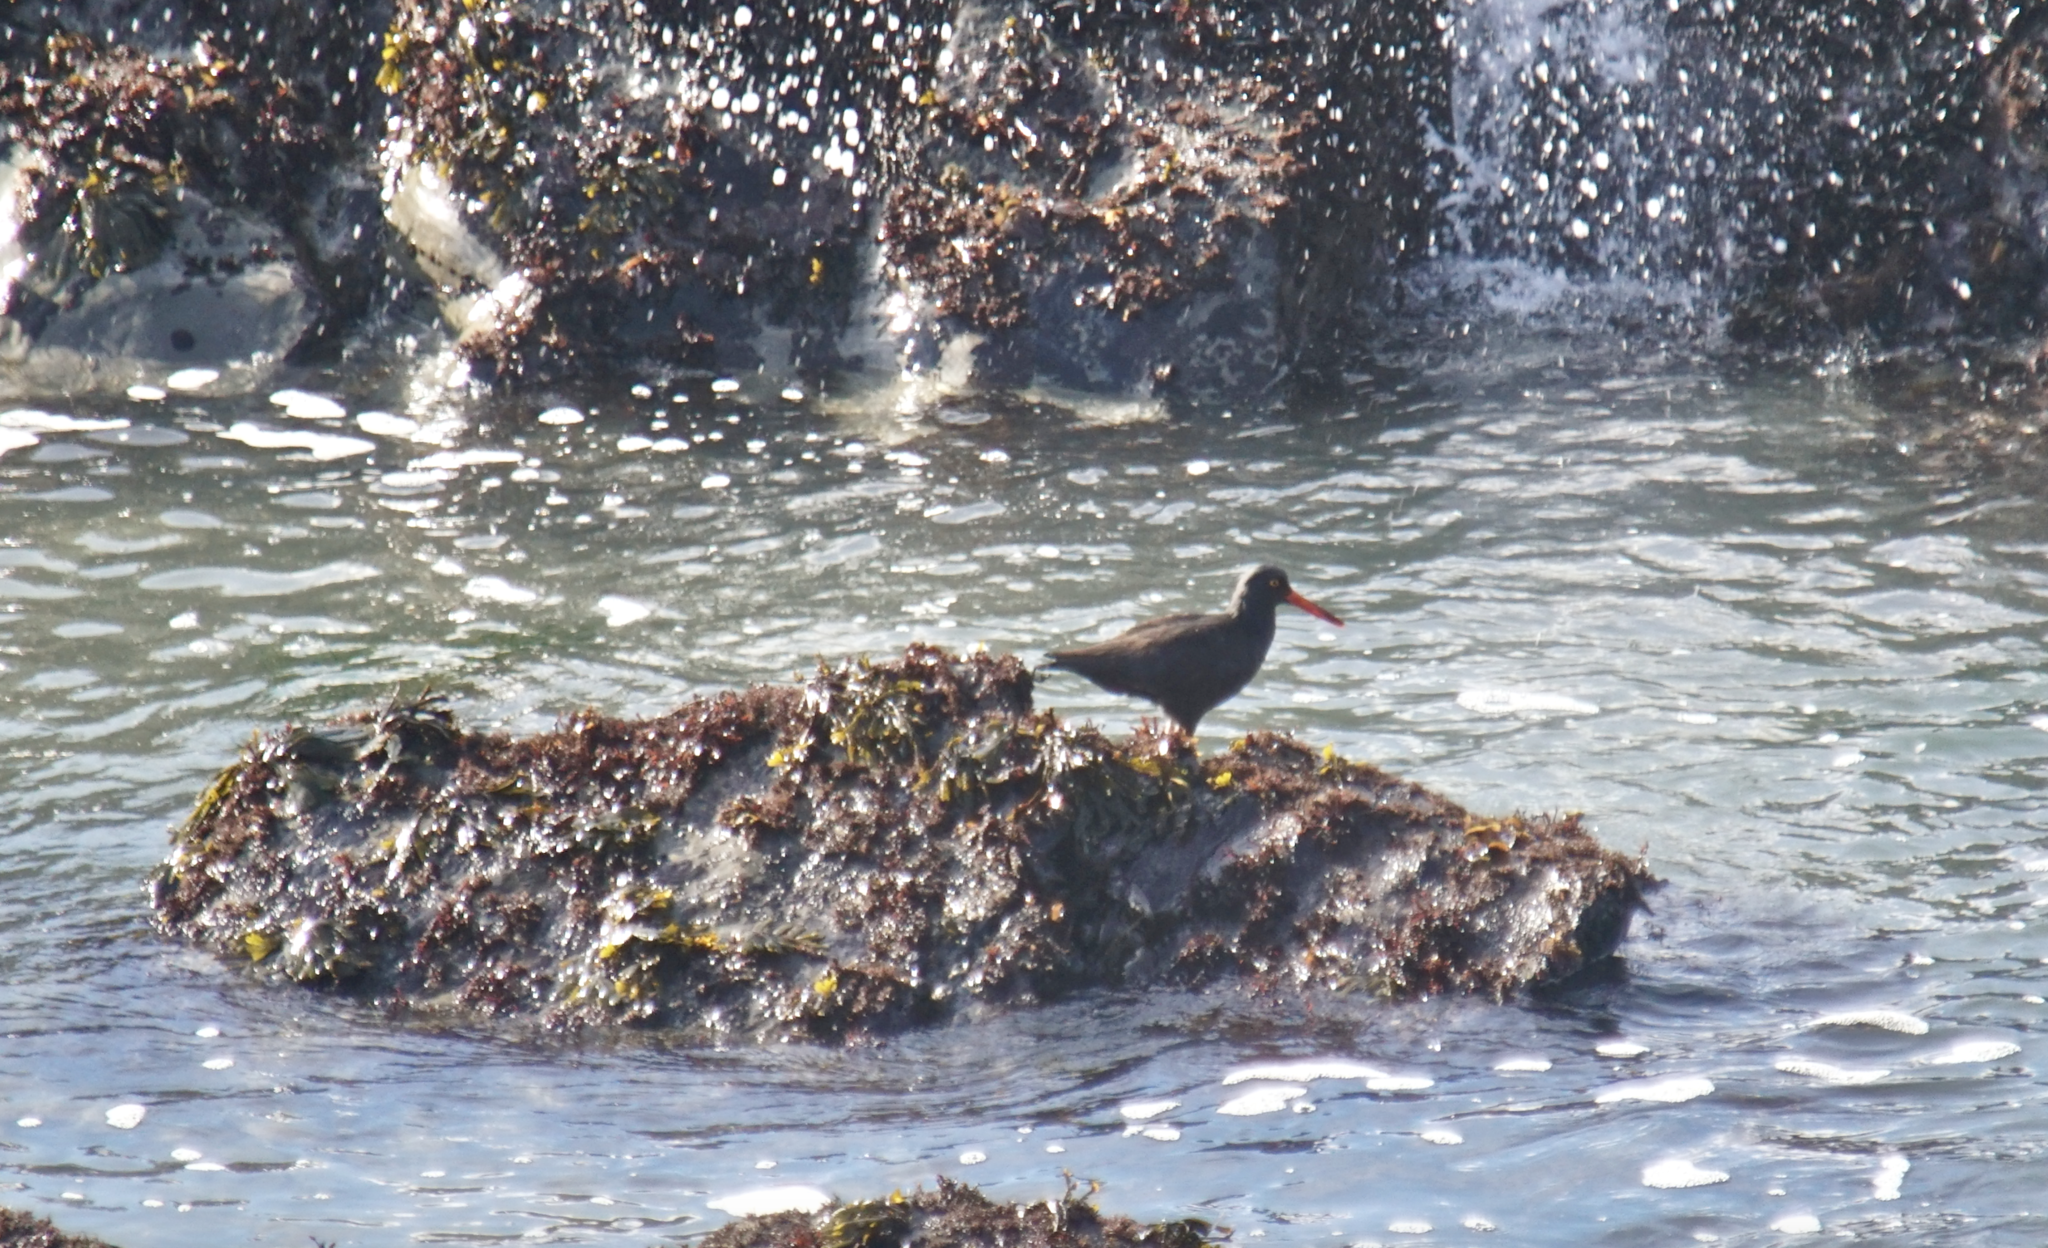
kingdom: Animalia
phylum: Chordata
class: Aves
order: Charadriiformes
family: Haematopodidae
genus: Haematopus
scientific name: Haematopus bachmani
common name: Black oystercatcher
